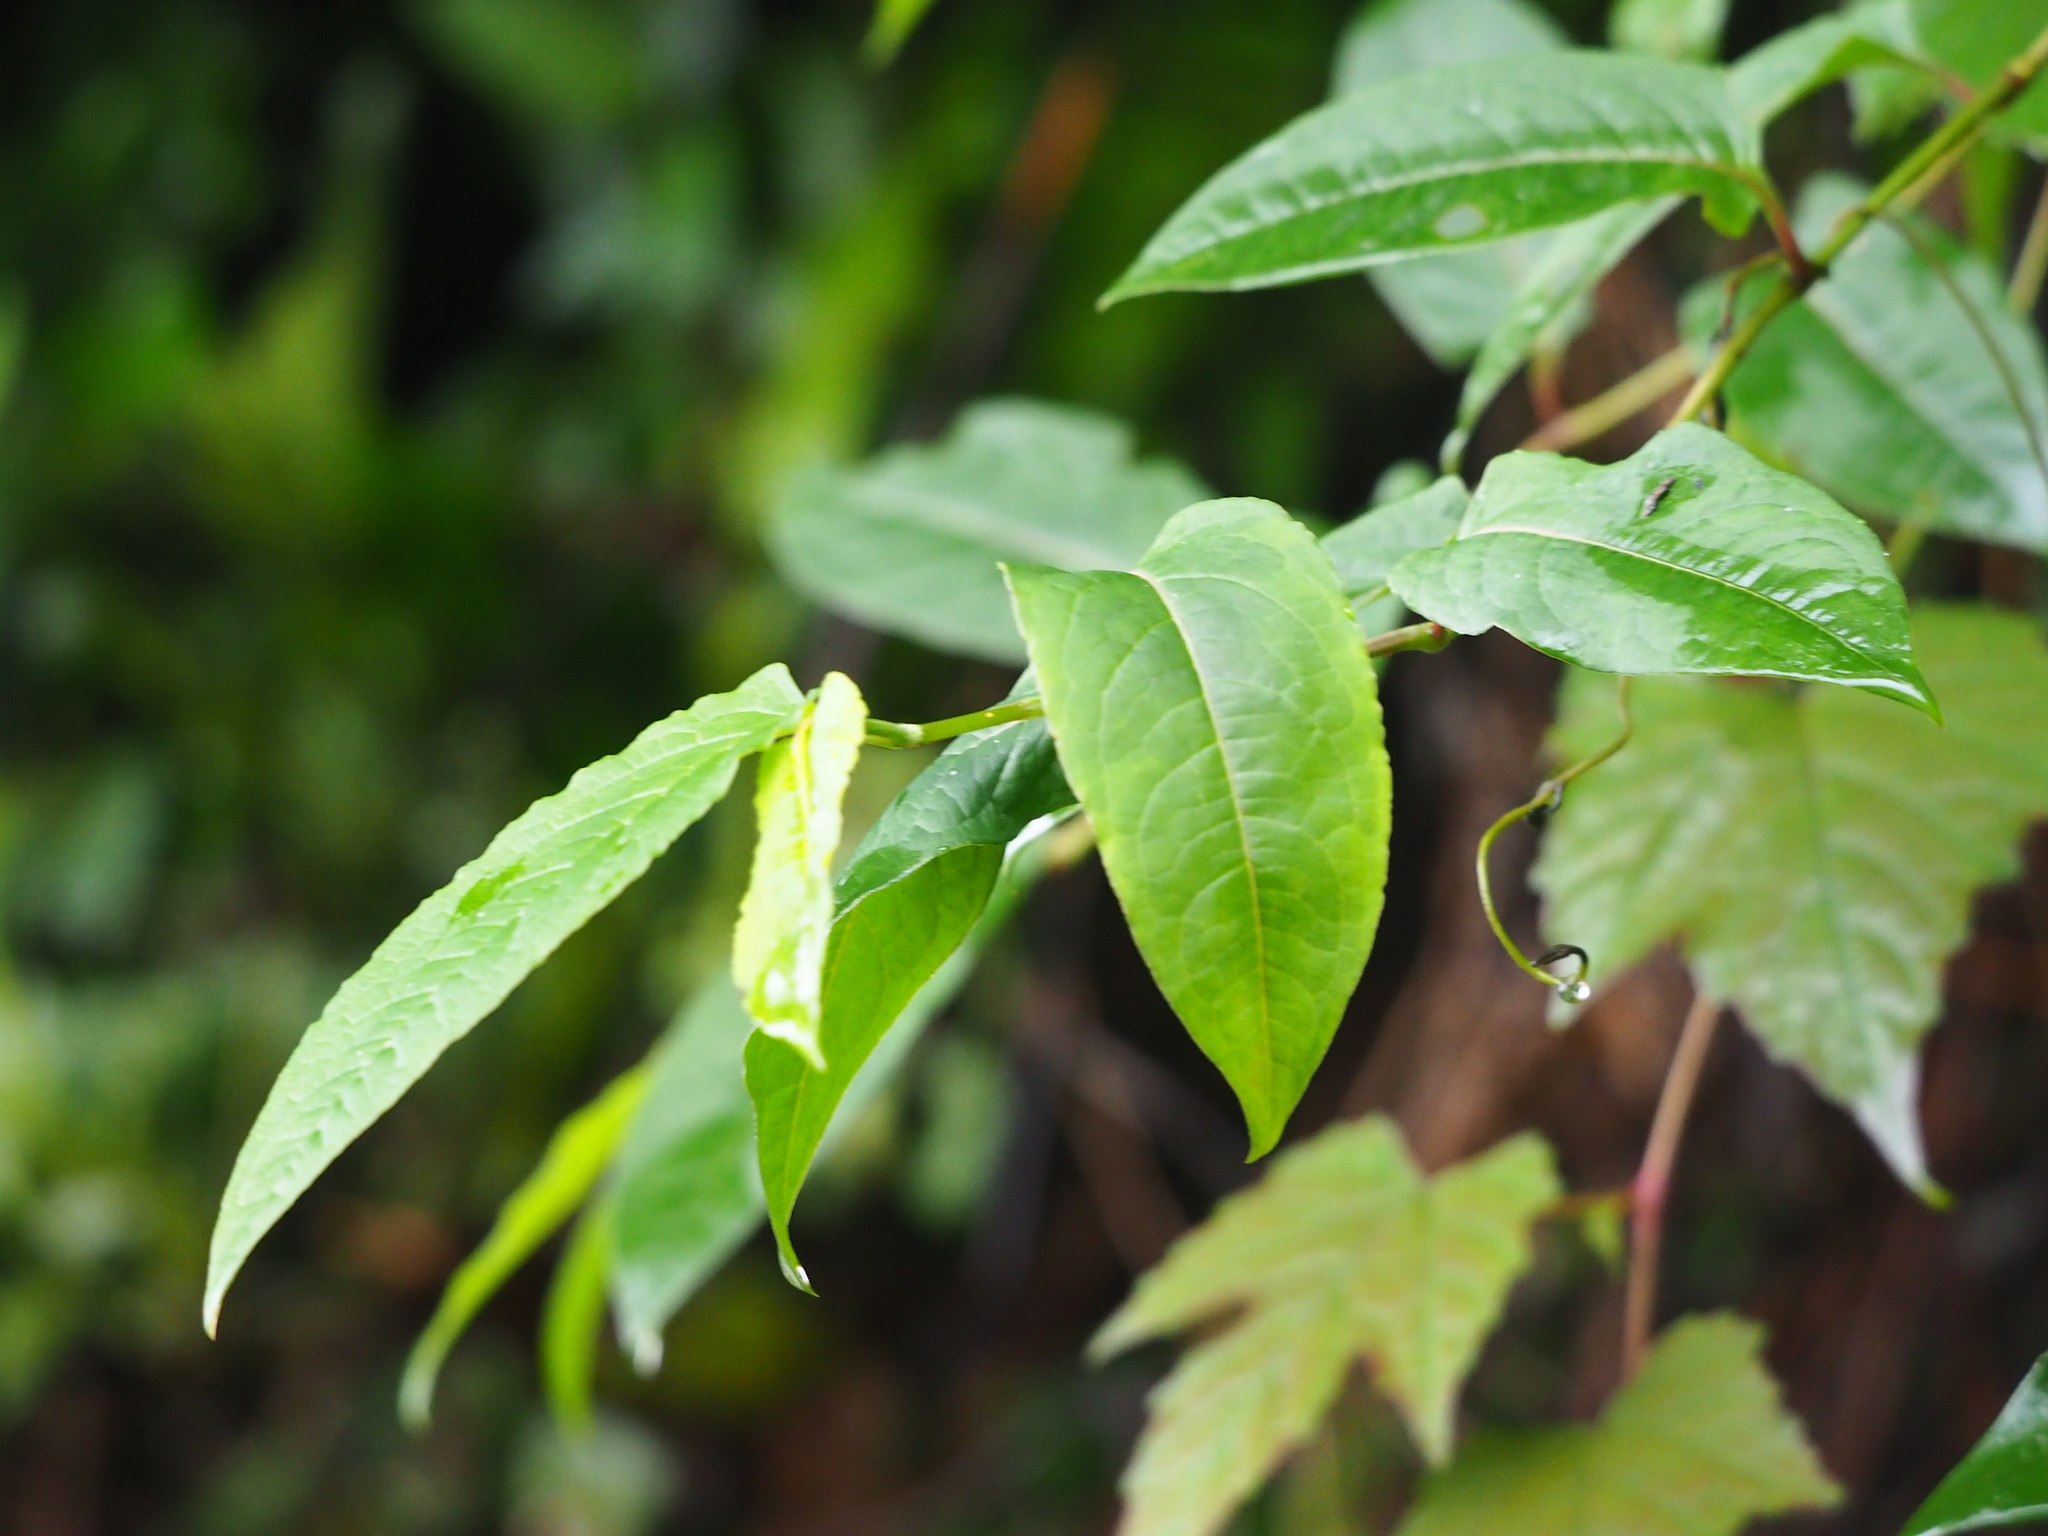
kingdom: Plantae
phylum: Tracheophyta
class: Magnoliopsida
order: Caryophyllales
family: Polygonaceae
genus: Persicaria
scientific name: Persicaria chinensis
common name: Chinese knotweed
